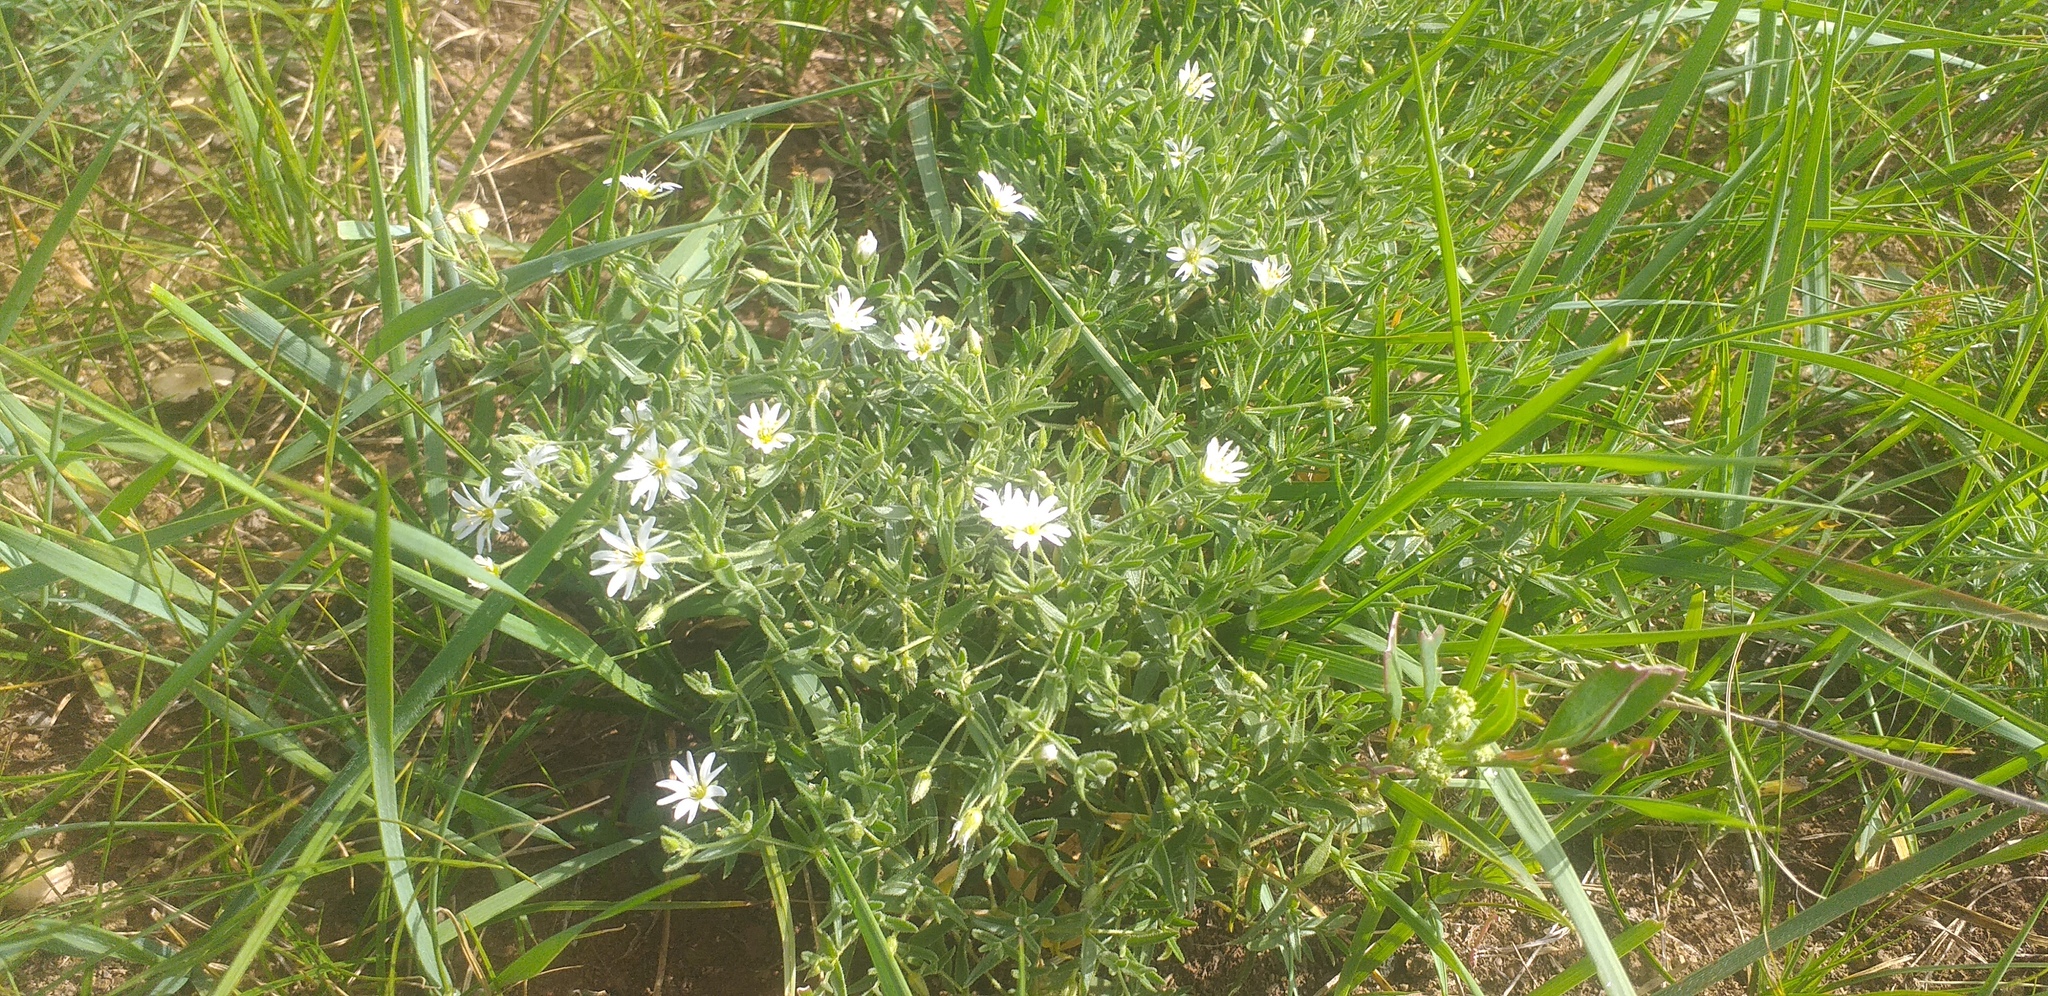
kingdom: Plantae
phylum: Tracheophyta
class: Magnoliopsida
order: Caryophyllales
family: Caryophyllaceae
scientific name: Caryophyllaceae
